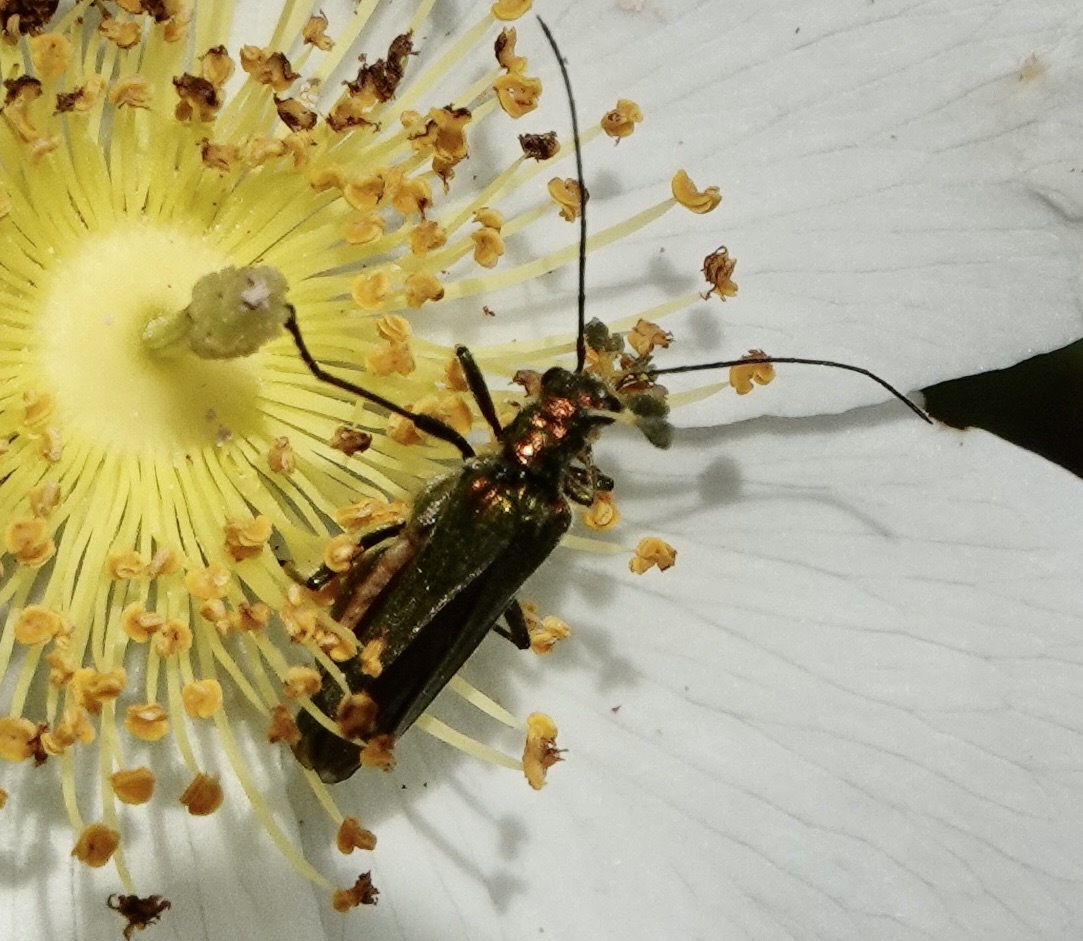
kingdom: Animalia
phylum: Arthropoda
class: Insecta
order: Coleoptera
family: Oedemeridae
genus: Oedemera
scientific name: Oedemera nobilis
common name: Swollen-thighed beetle
